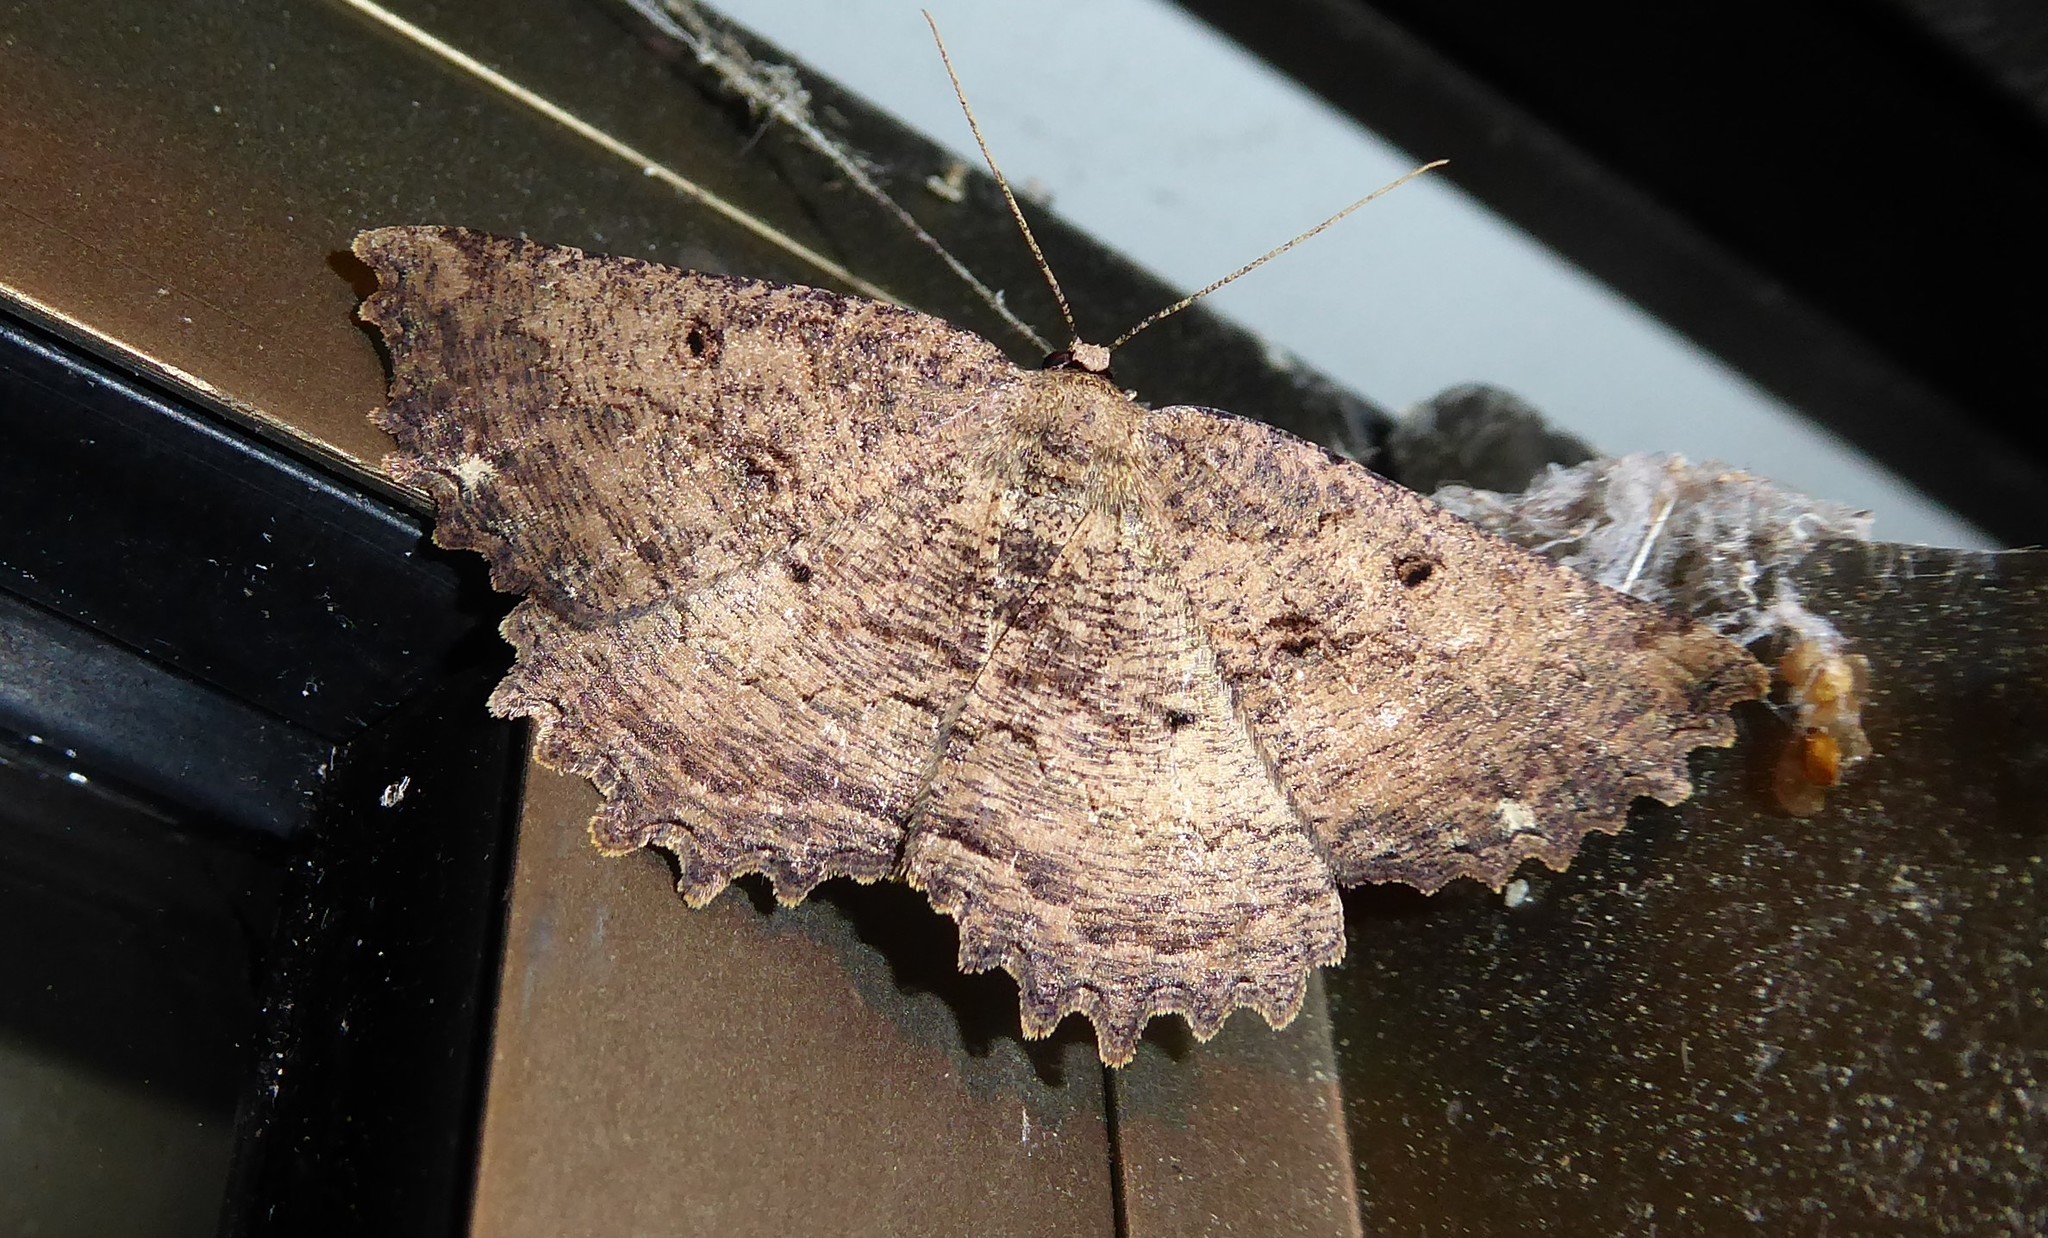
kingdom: Animalia
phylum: Arthropoda
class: Insecta
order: Lepidoptera
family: Geometridae
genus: Gellonia
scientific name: Gellonia pannularia
